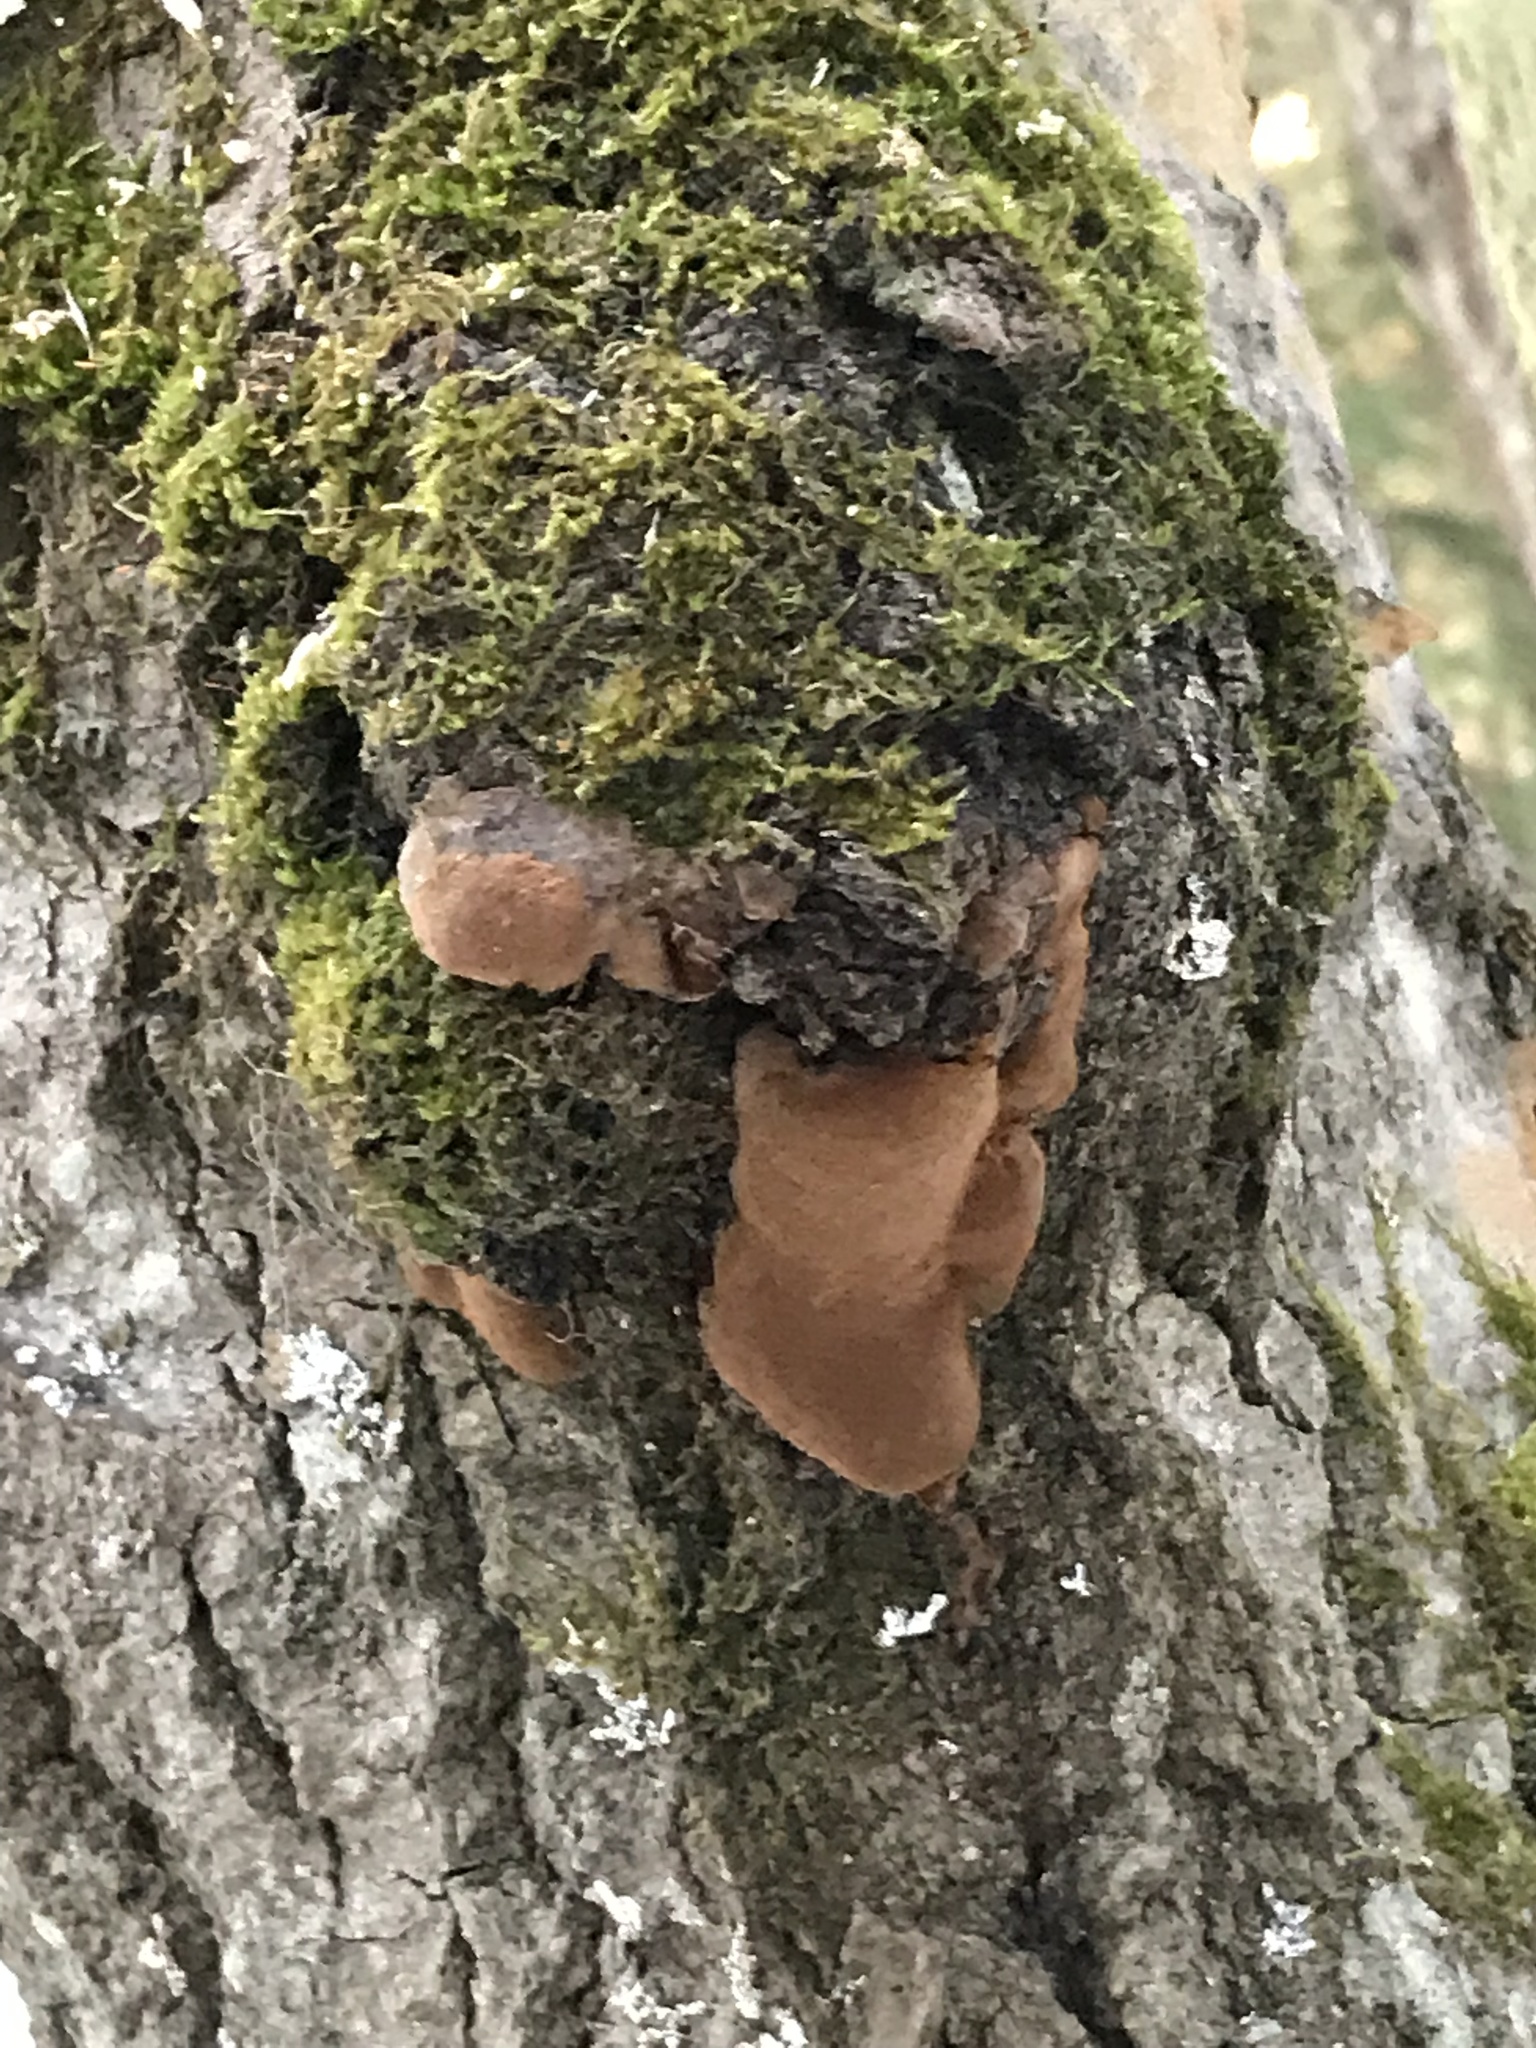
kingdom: Fungi
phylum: Basidiomycota
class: Agaricomycetes
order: Hymenochaetales
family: Hymenochaetaceae
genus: Phellinus
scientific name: Phellinus tremulae
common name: Aspen bracket
